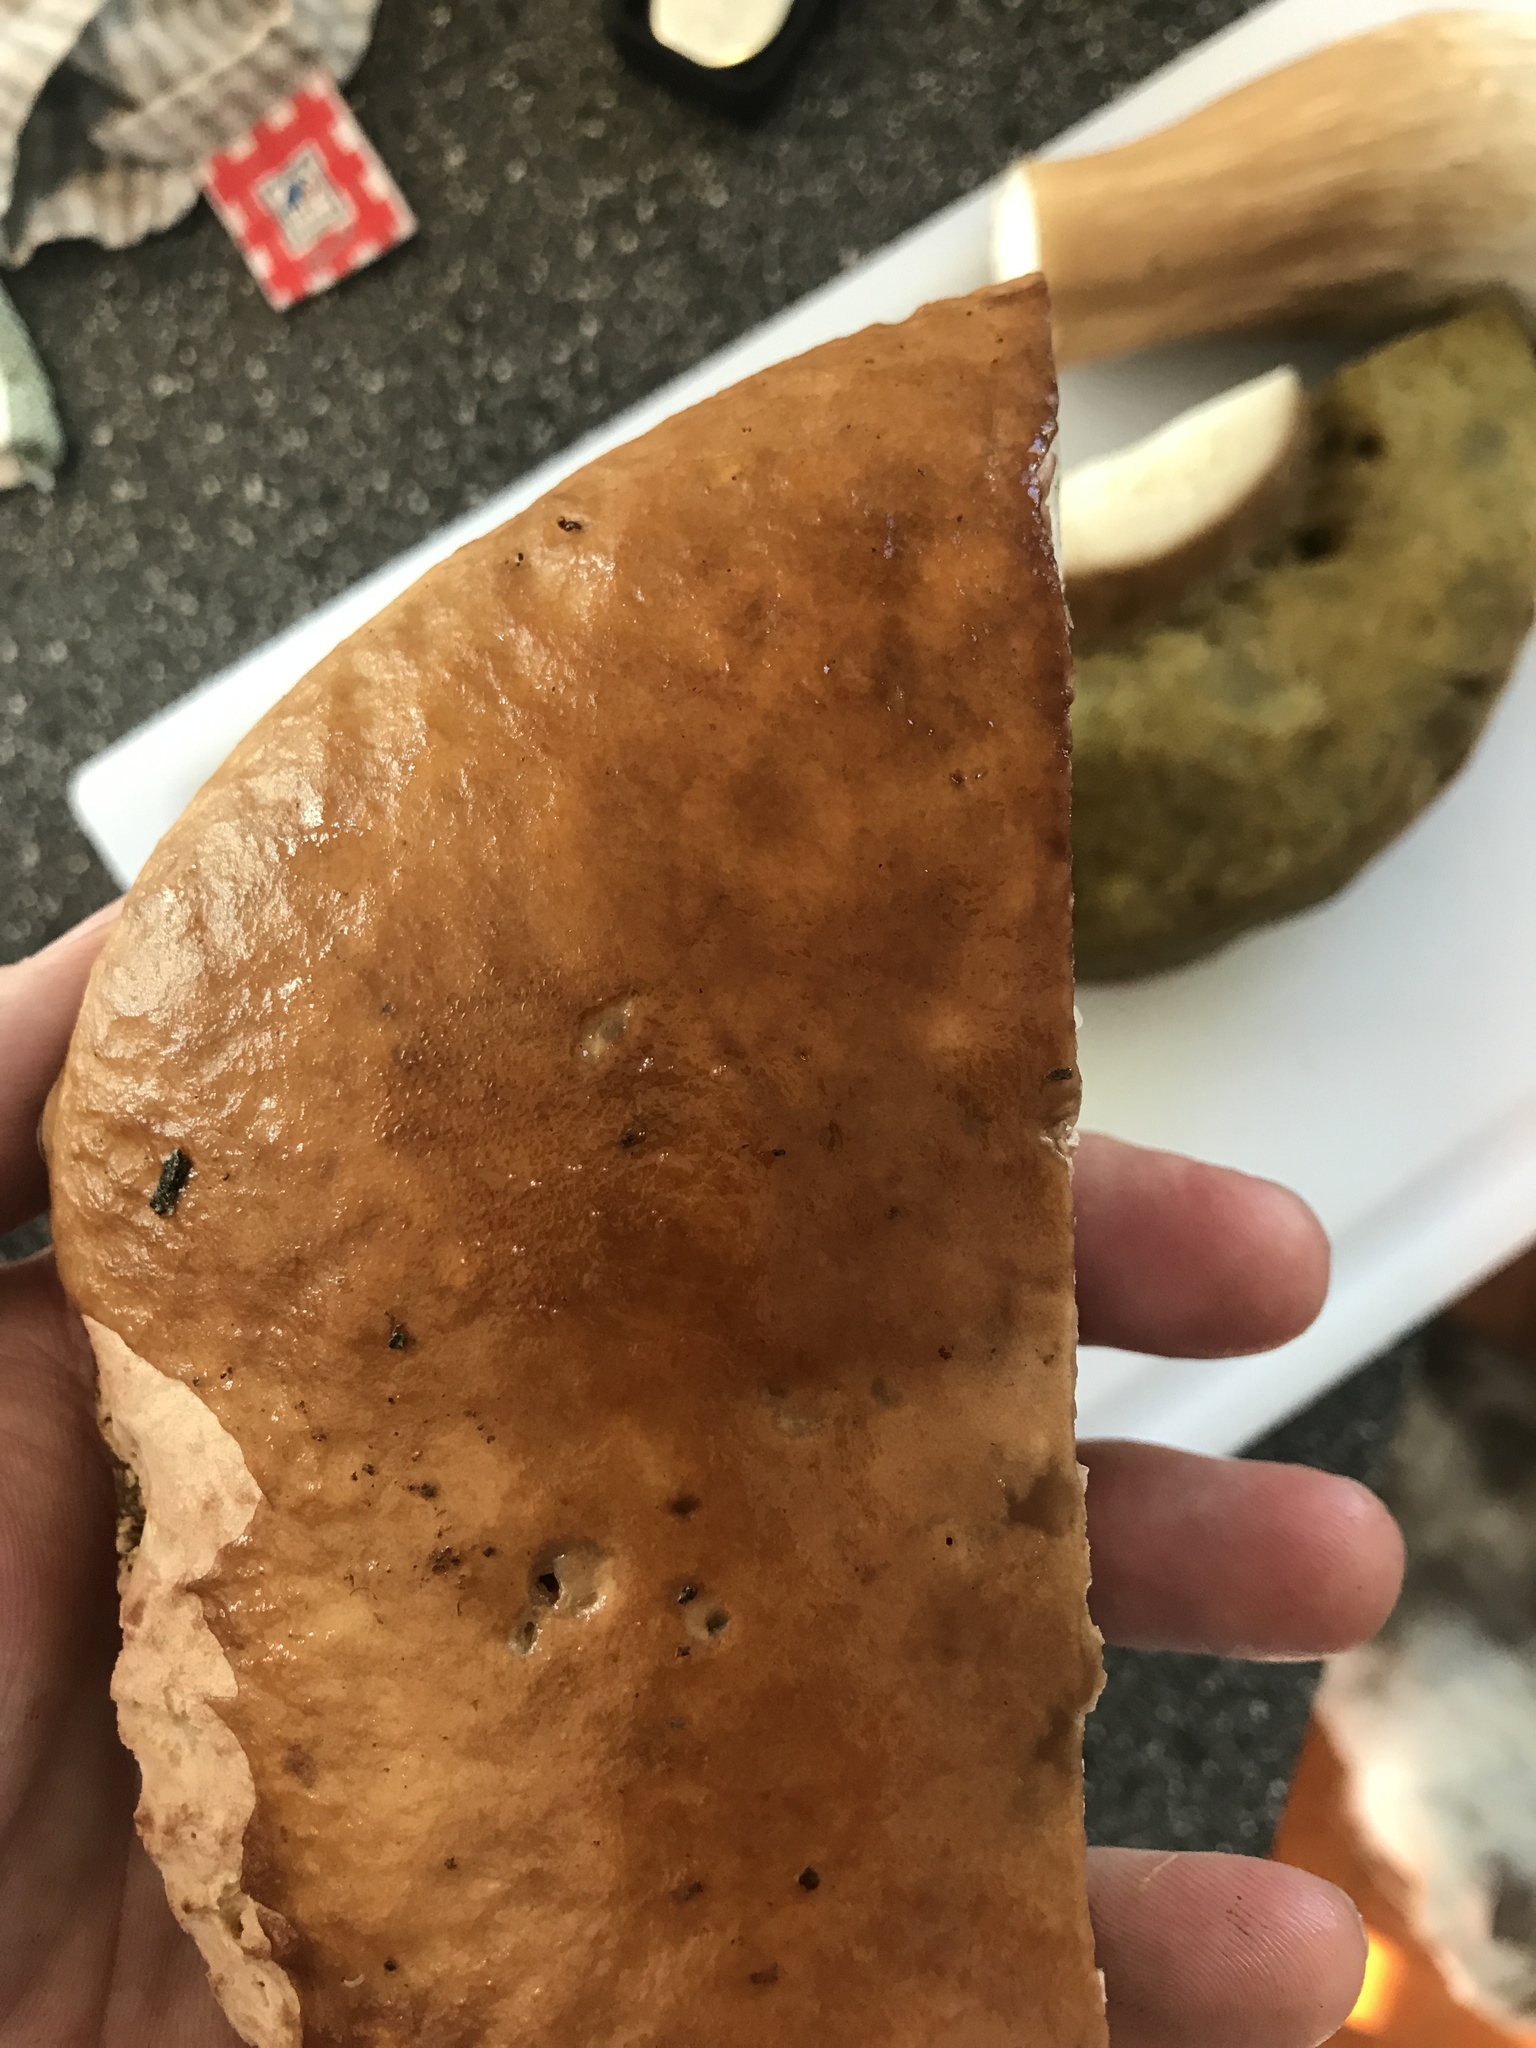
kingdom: Fungi
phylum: Basidiomycota
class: Agaricomycetes
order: Boletales
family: Boletaceae
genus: Boletus
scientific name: Boletus edulis
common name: Cep
